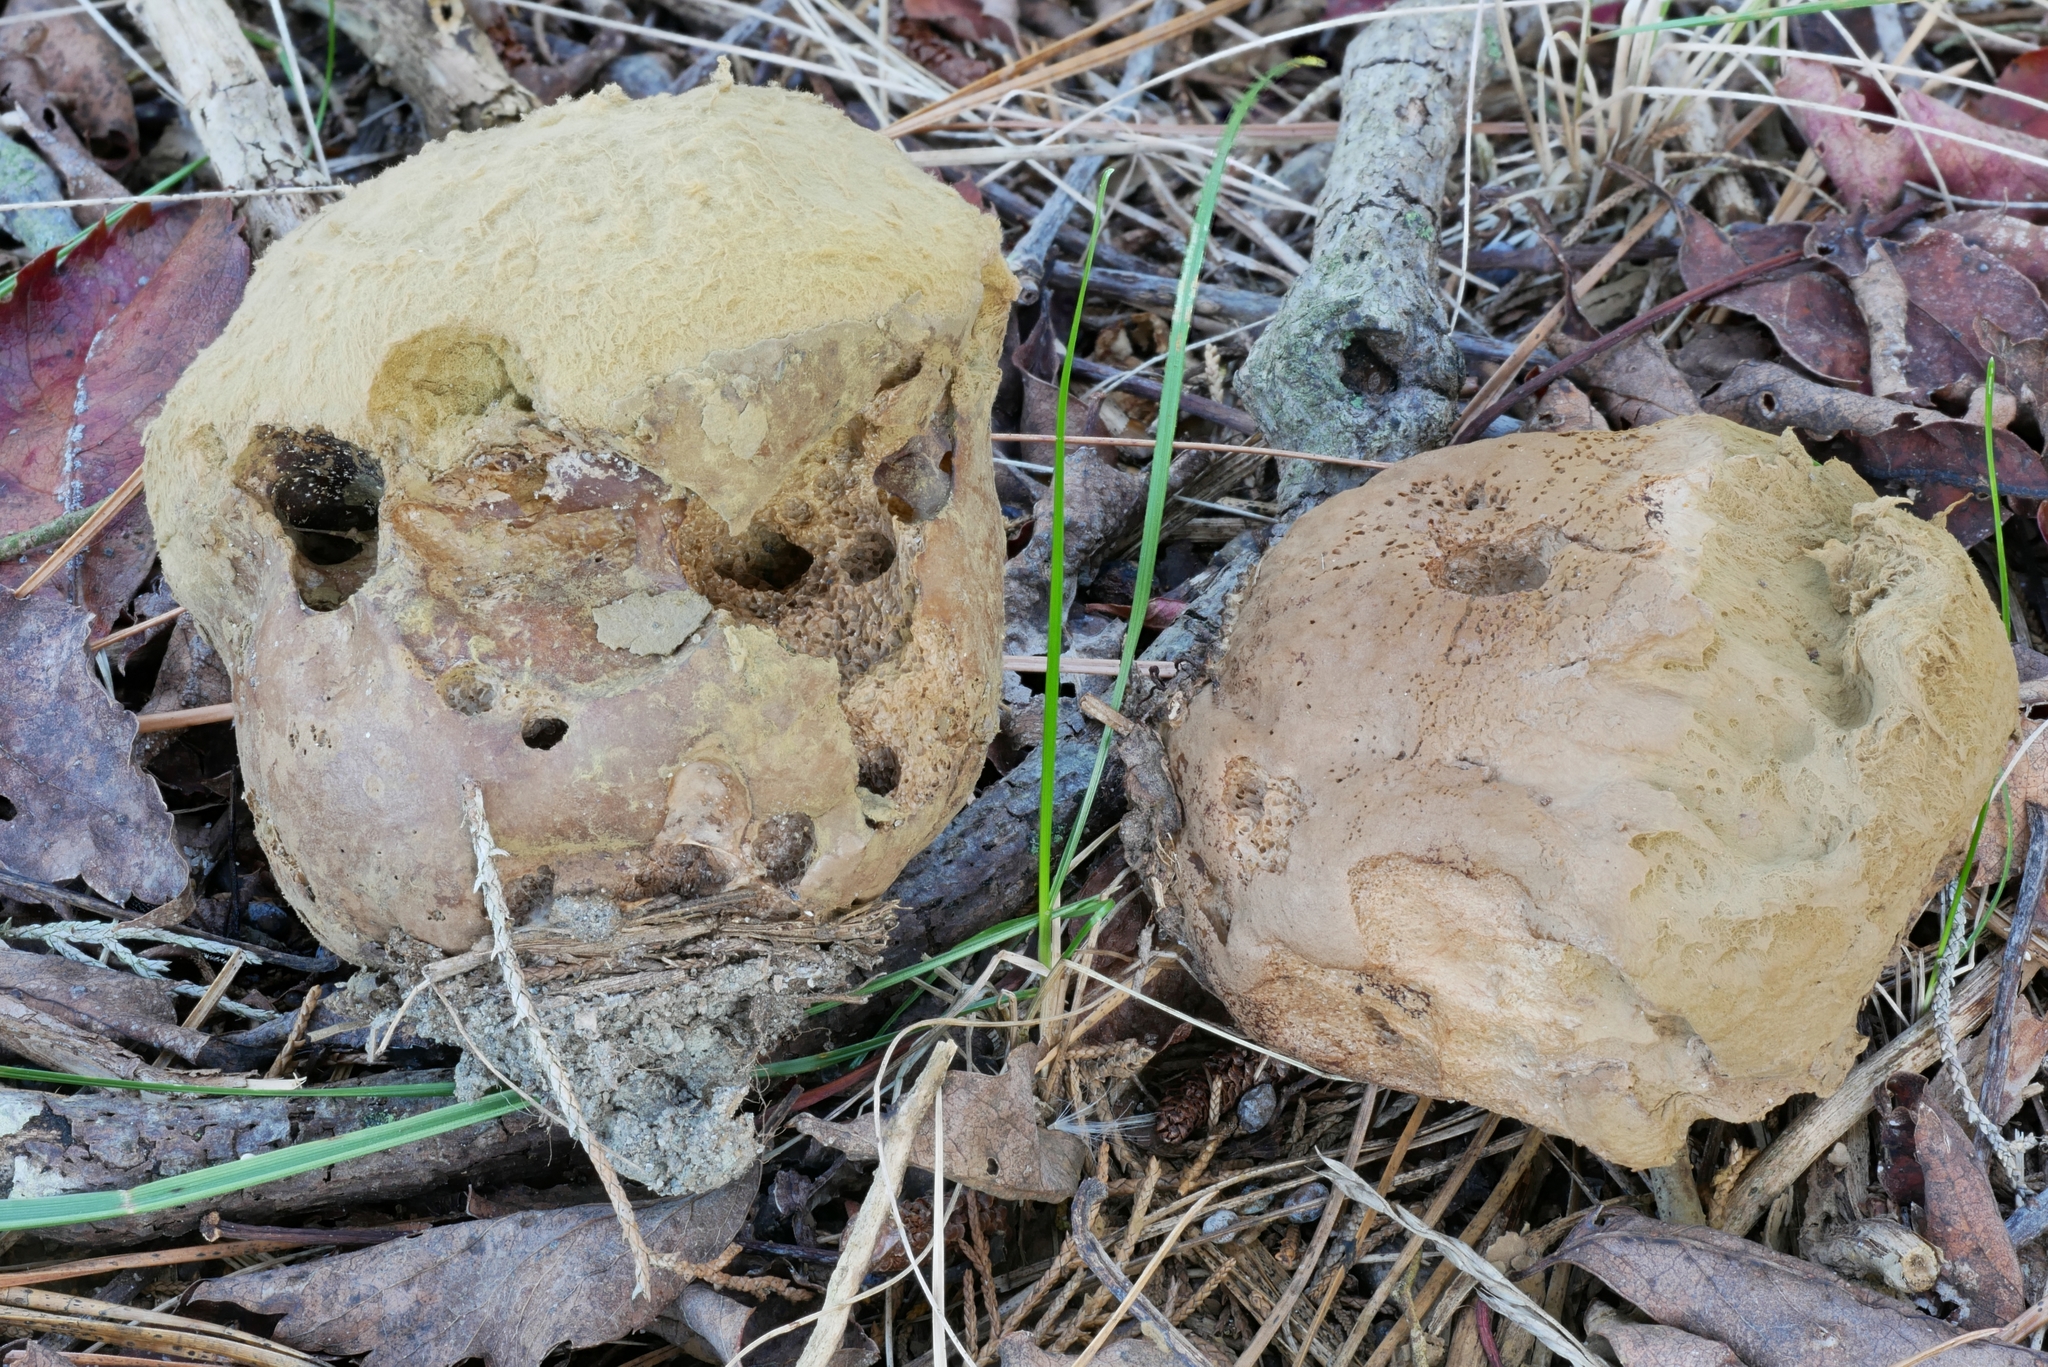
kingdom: Fungi
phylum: Basidiomycota
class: Agaricomycetes
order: Agaricales
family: Lycoperdaceae
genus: Calvatia
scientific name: Calvatia
